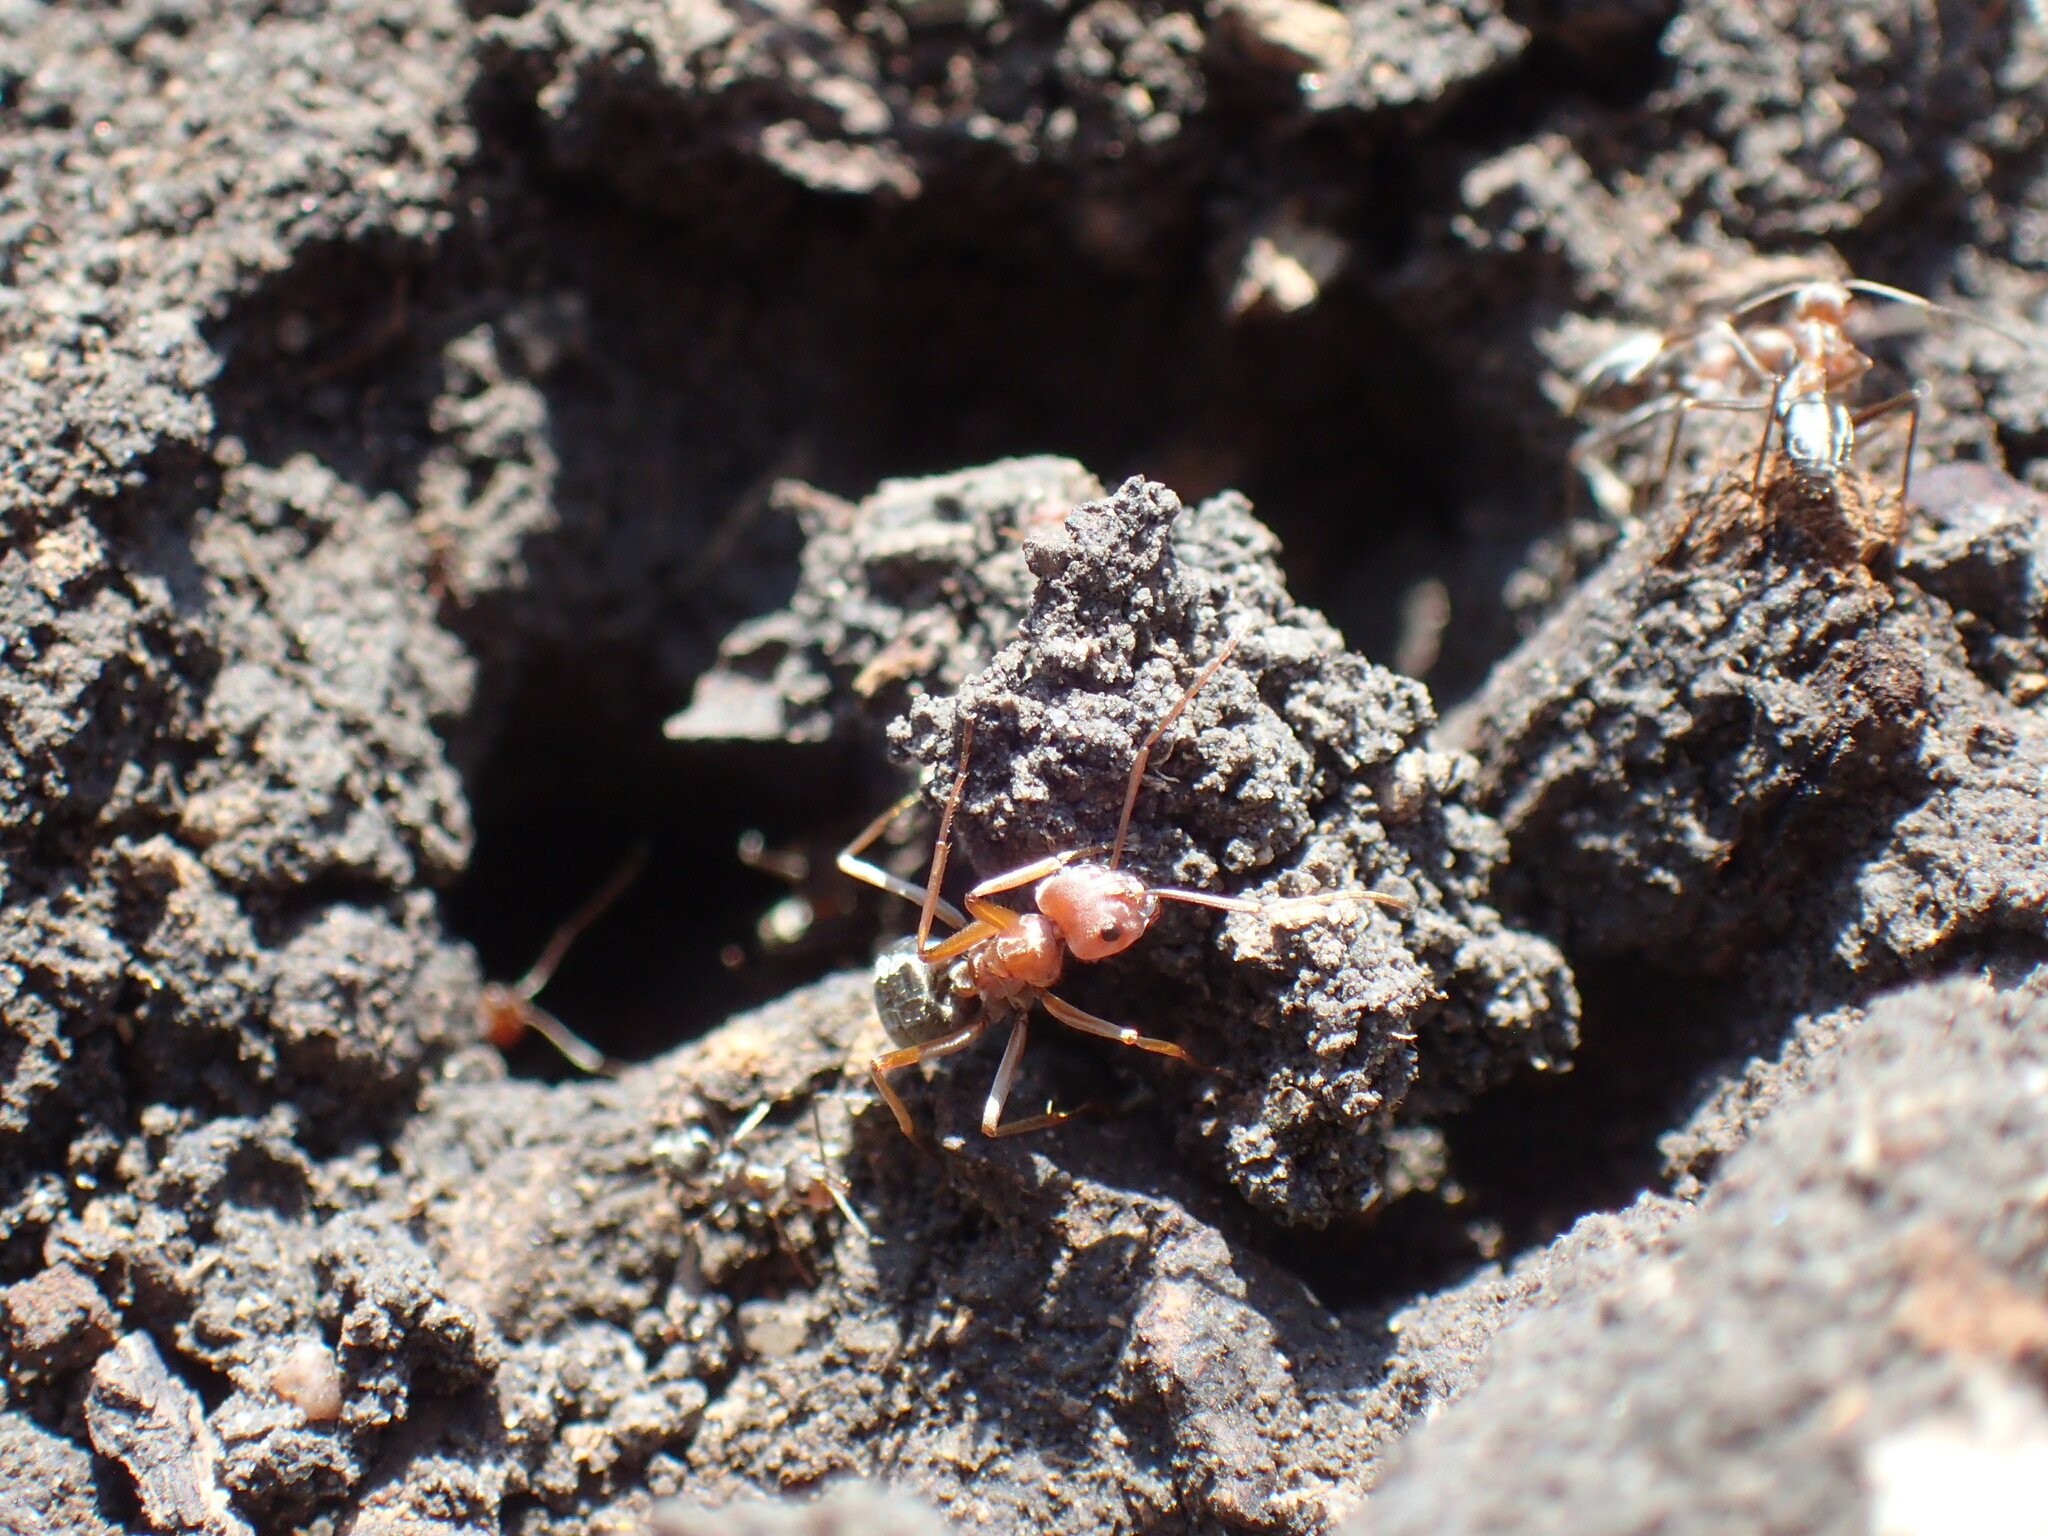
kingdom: Animalia
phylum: Arthropoda
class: Insecta
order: Hymenoptera
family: Formicidae
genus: Anoplolepis
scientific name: Anoplolepis custodiens
